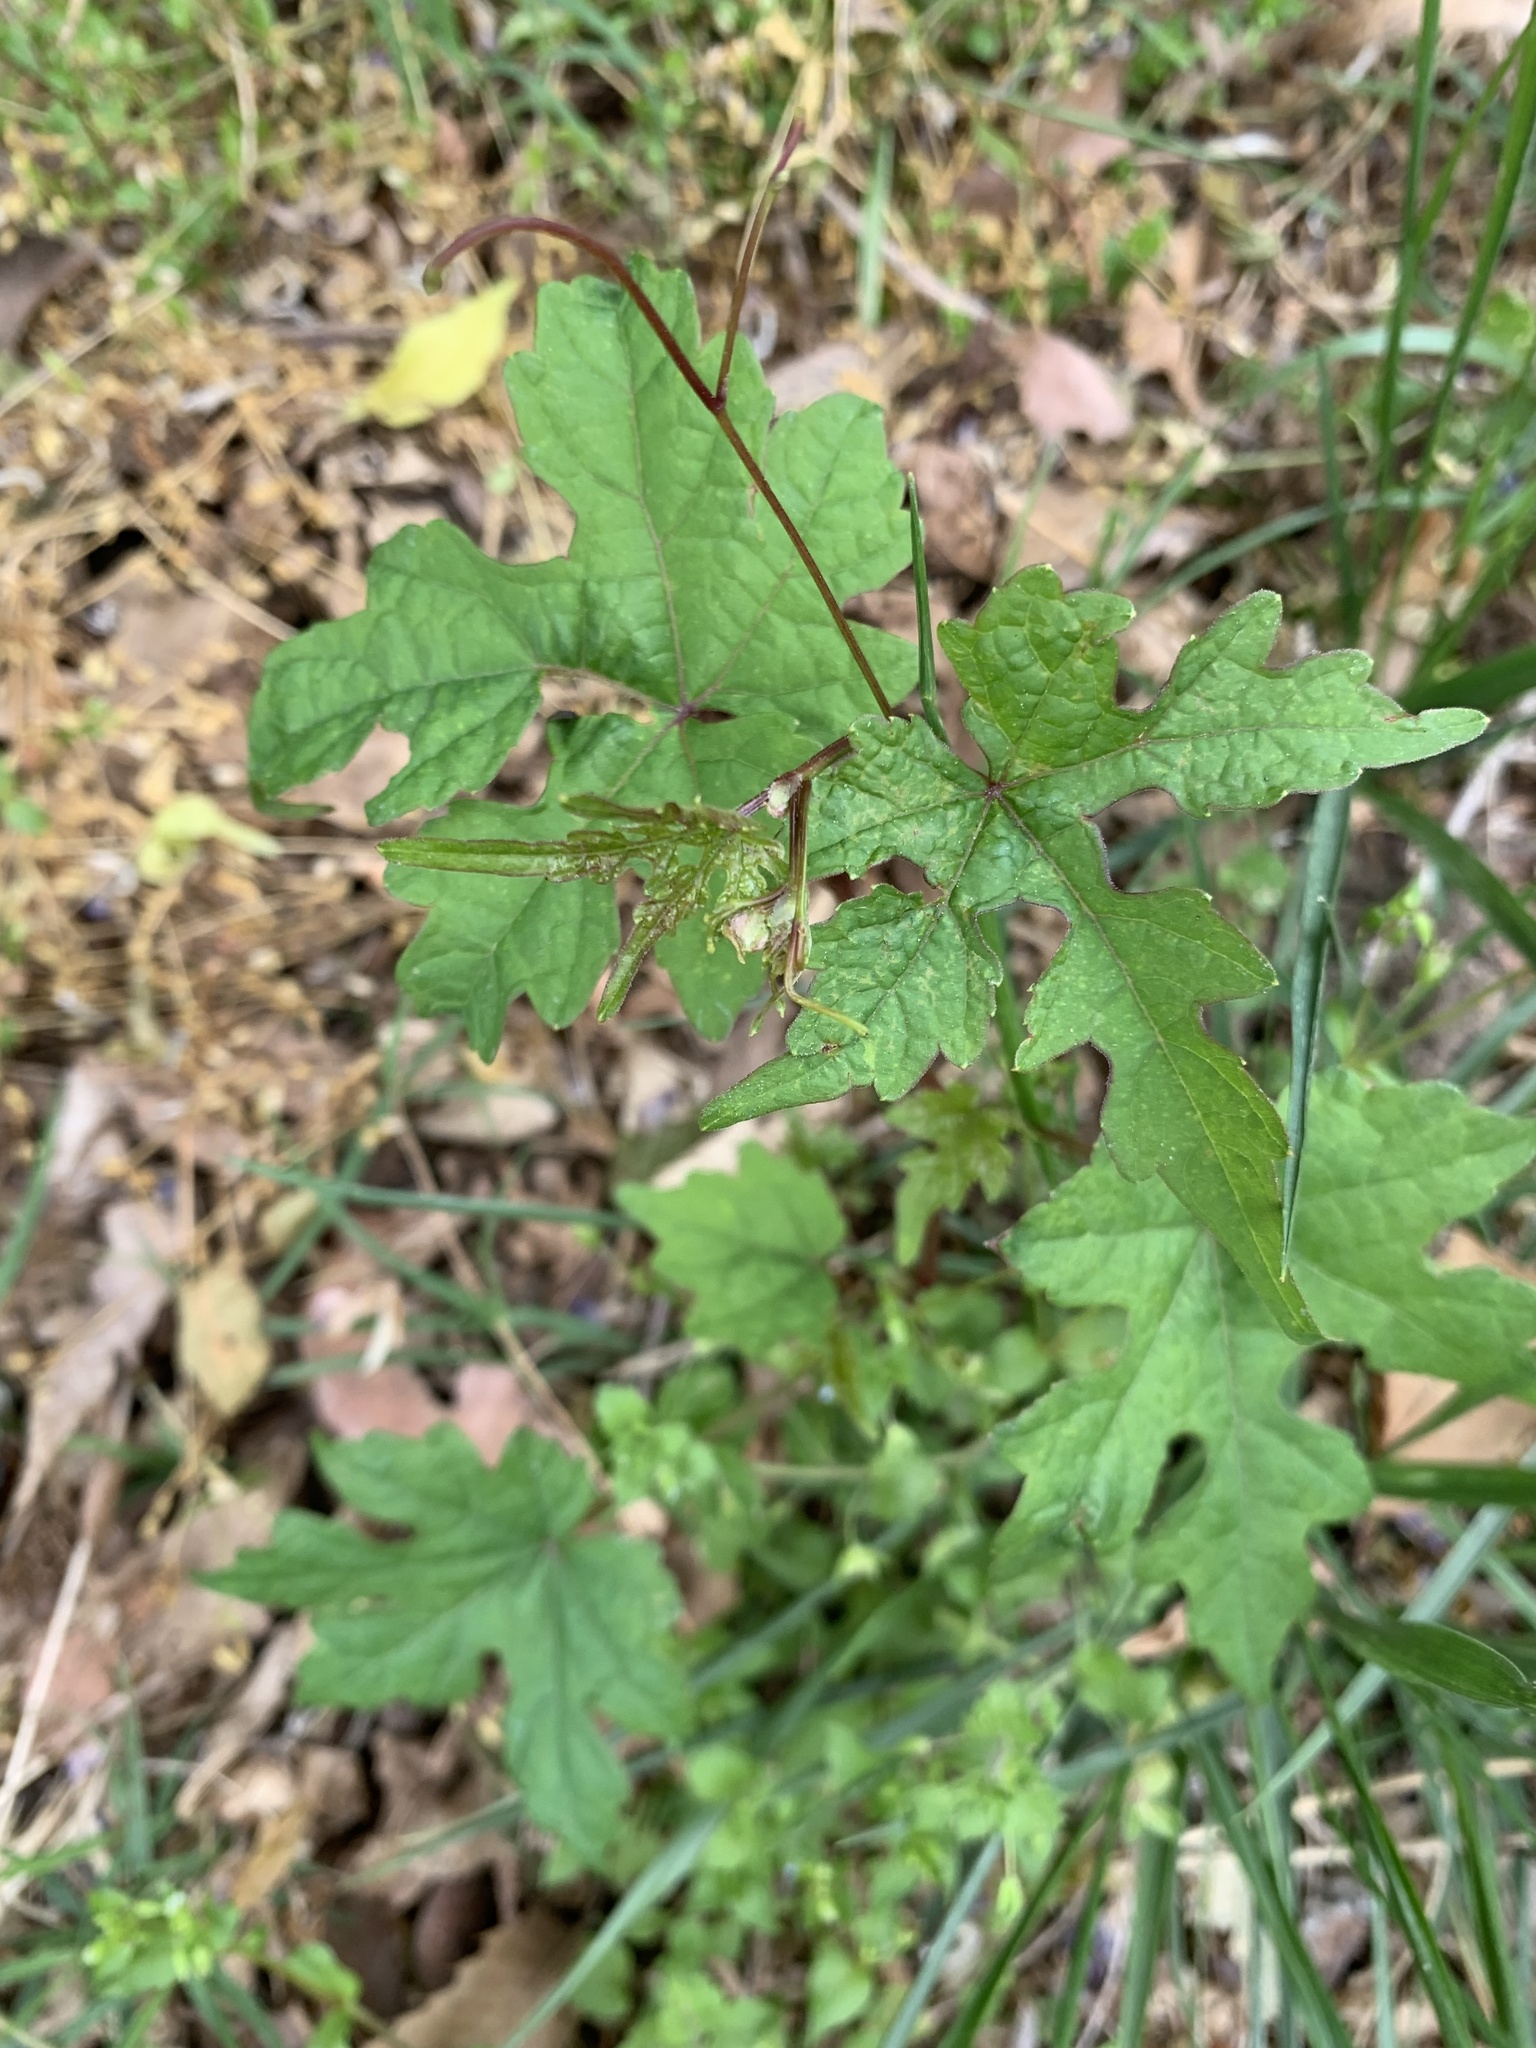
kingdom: Plantae
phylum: Tracheophyta
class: Magnoliopsida
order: Vitales
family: Vitaceae
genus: Ampelopsis
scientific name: Ampelopsis glandulosa
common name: Amur peppervine
